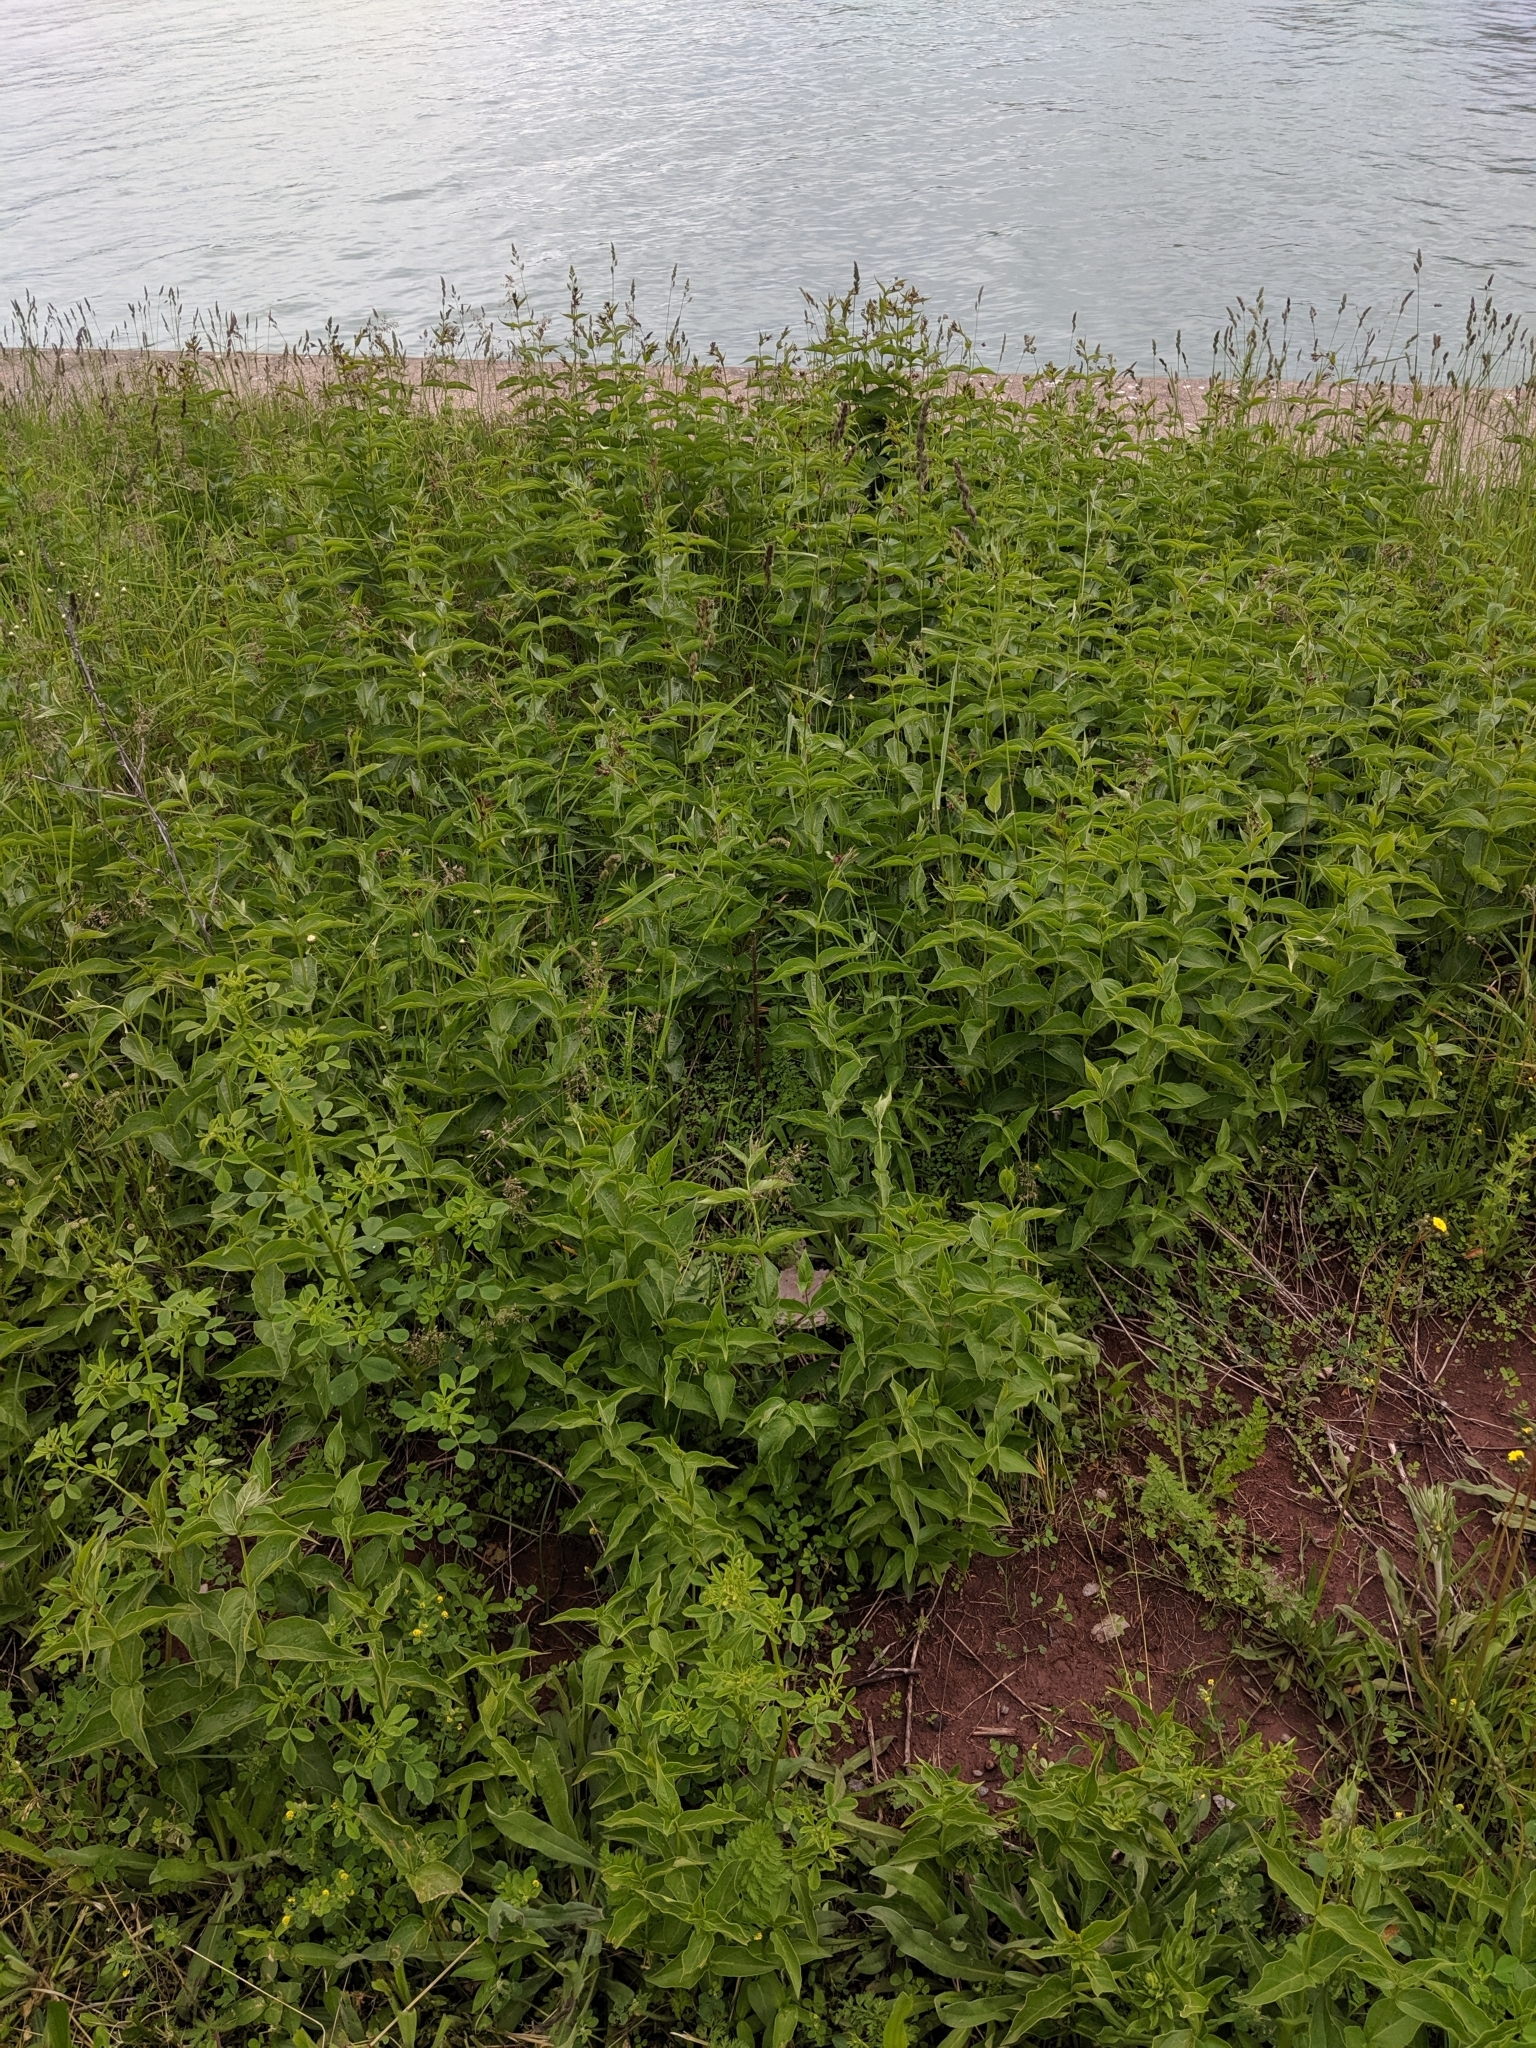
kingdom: Plantae
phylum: Tracheophyta
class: Magnoliopsida
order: Gentianales
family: Apocynaceae
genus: Vincetoxicum
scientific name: Vincetoxicum rossicum
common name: Dog-strangling vine
